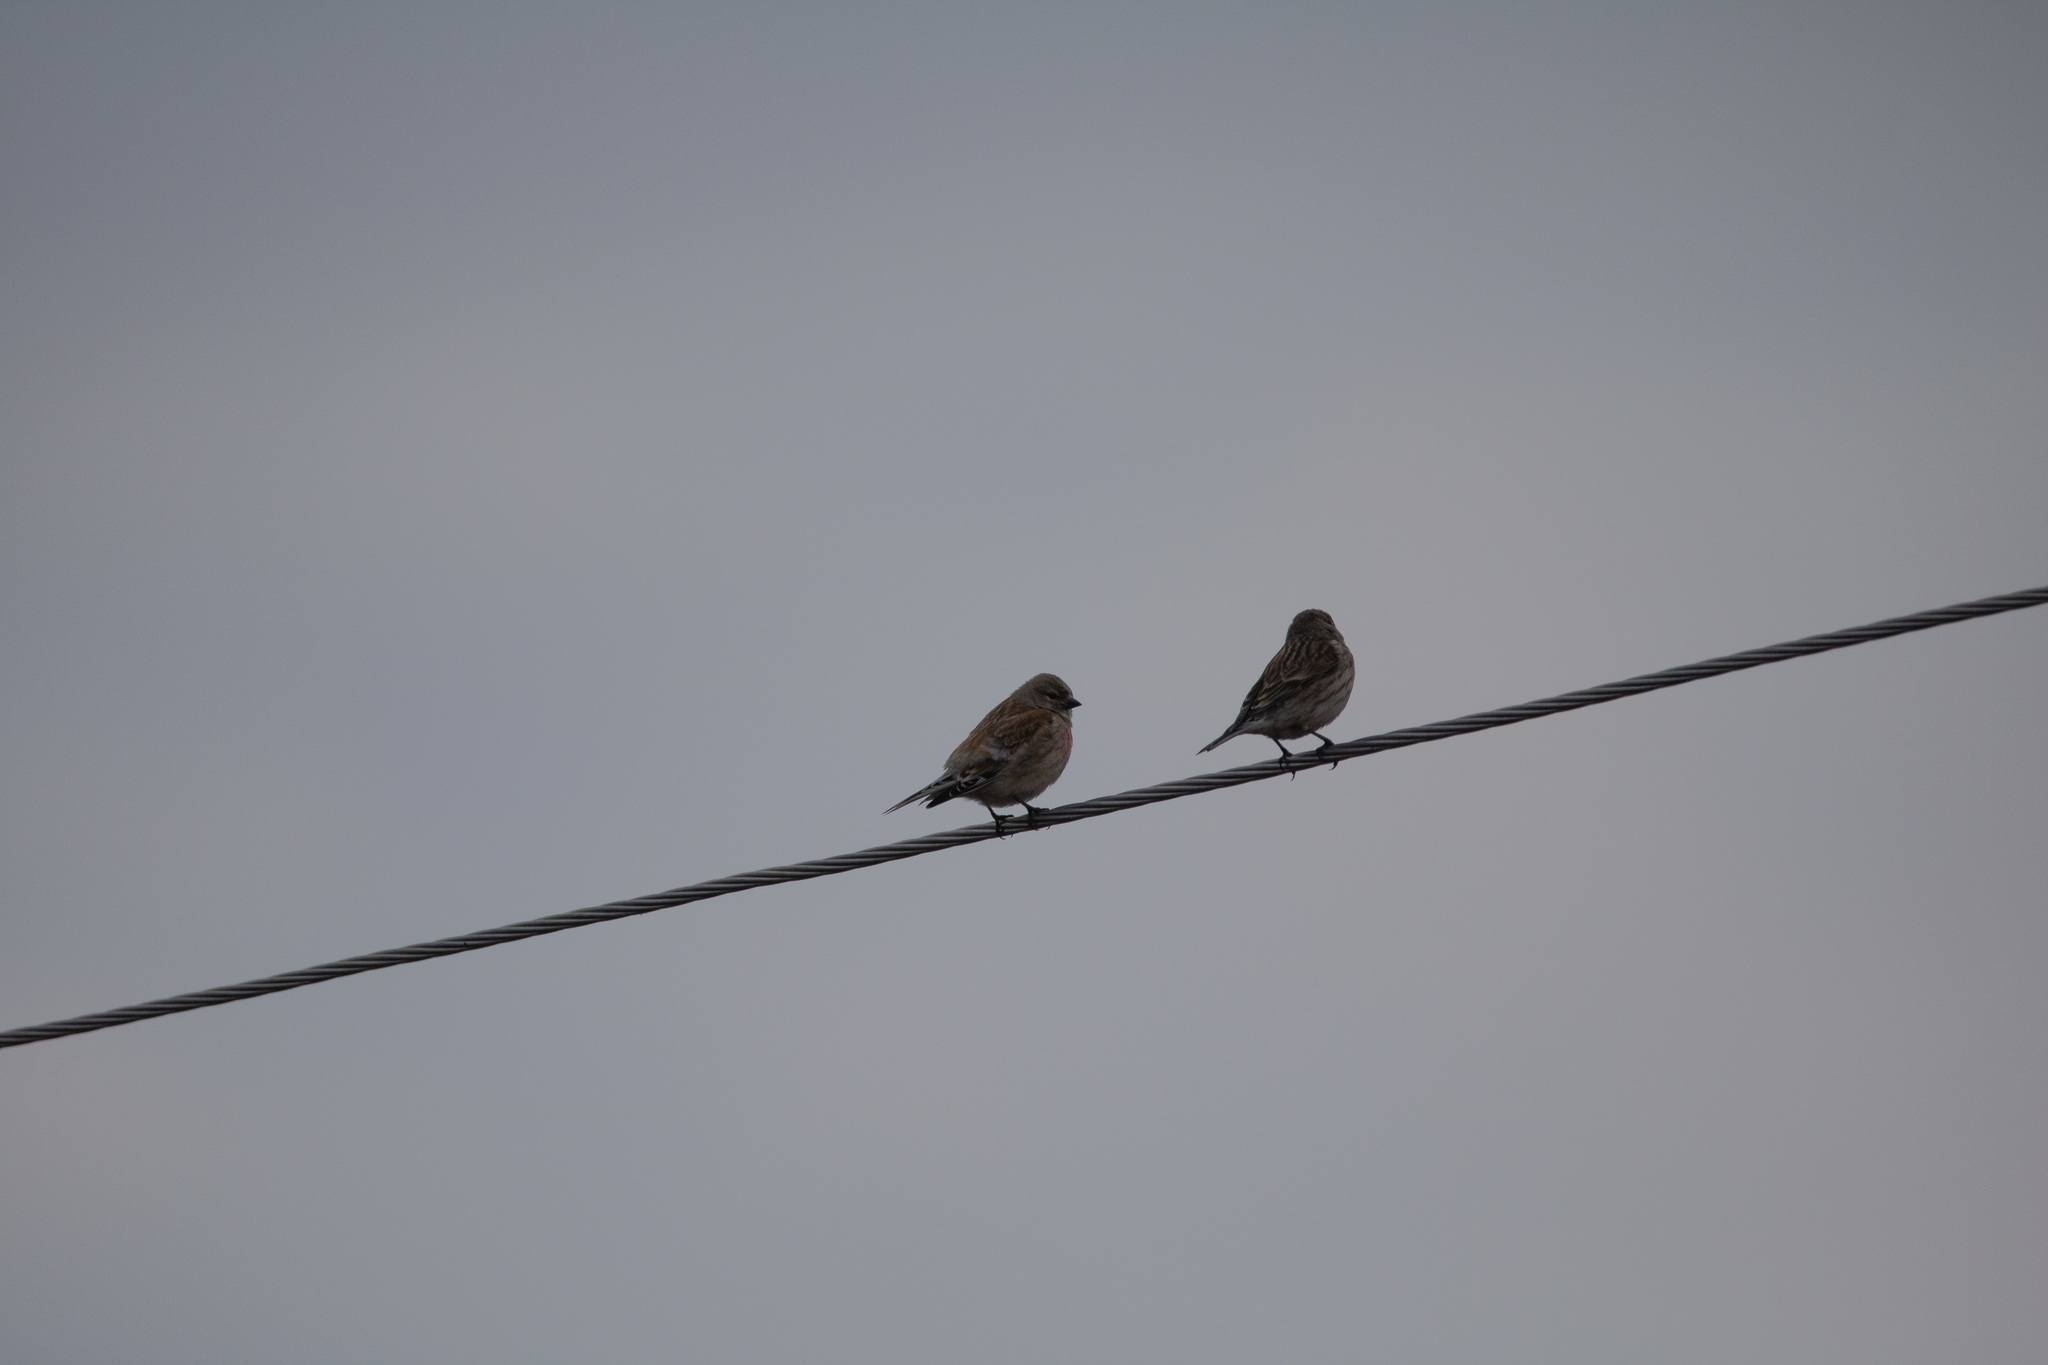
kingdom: Animalia
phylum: Chordata
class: Aves
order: Passeriformes
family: Fringillidae
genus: Linaria
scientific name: Linaria cannabina
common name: Common linnet
